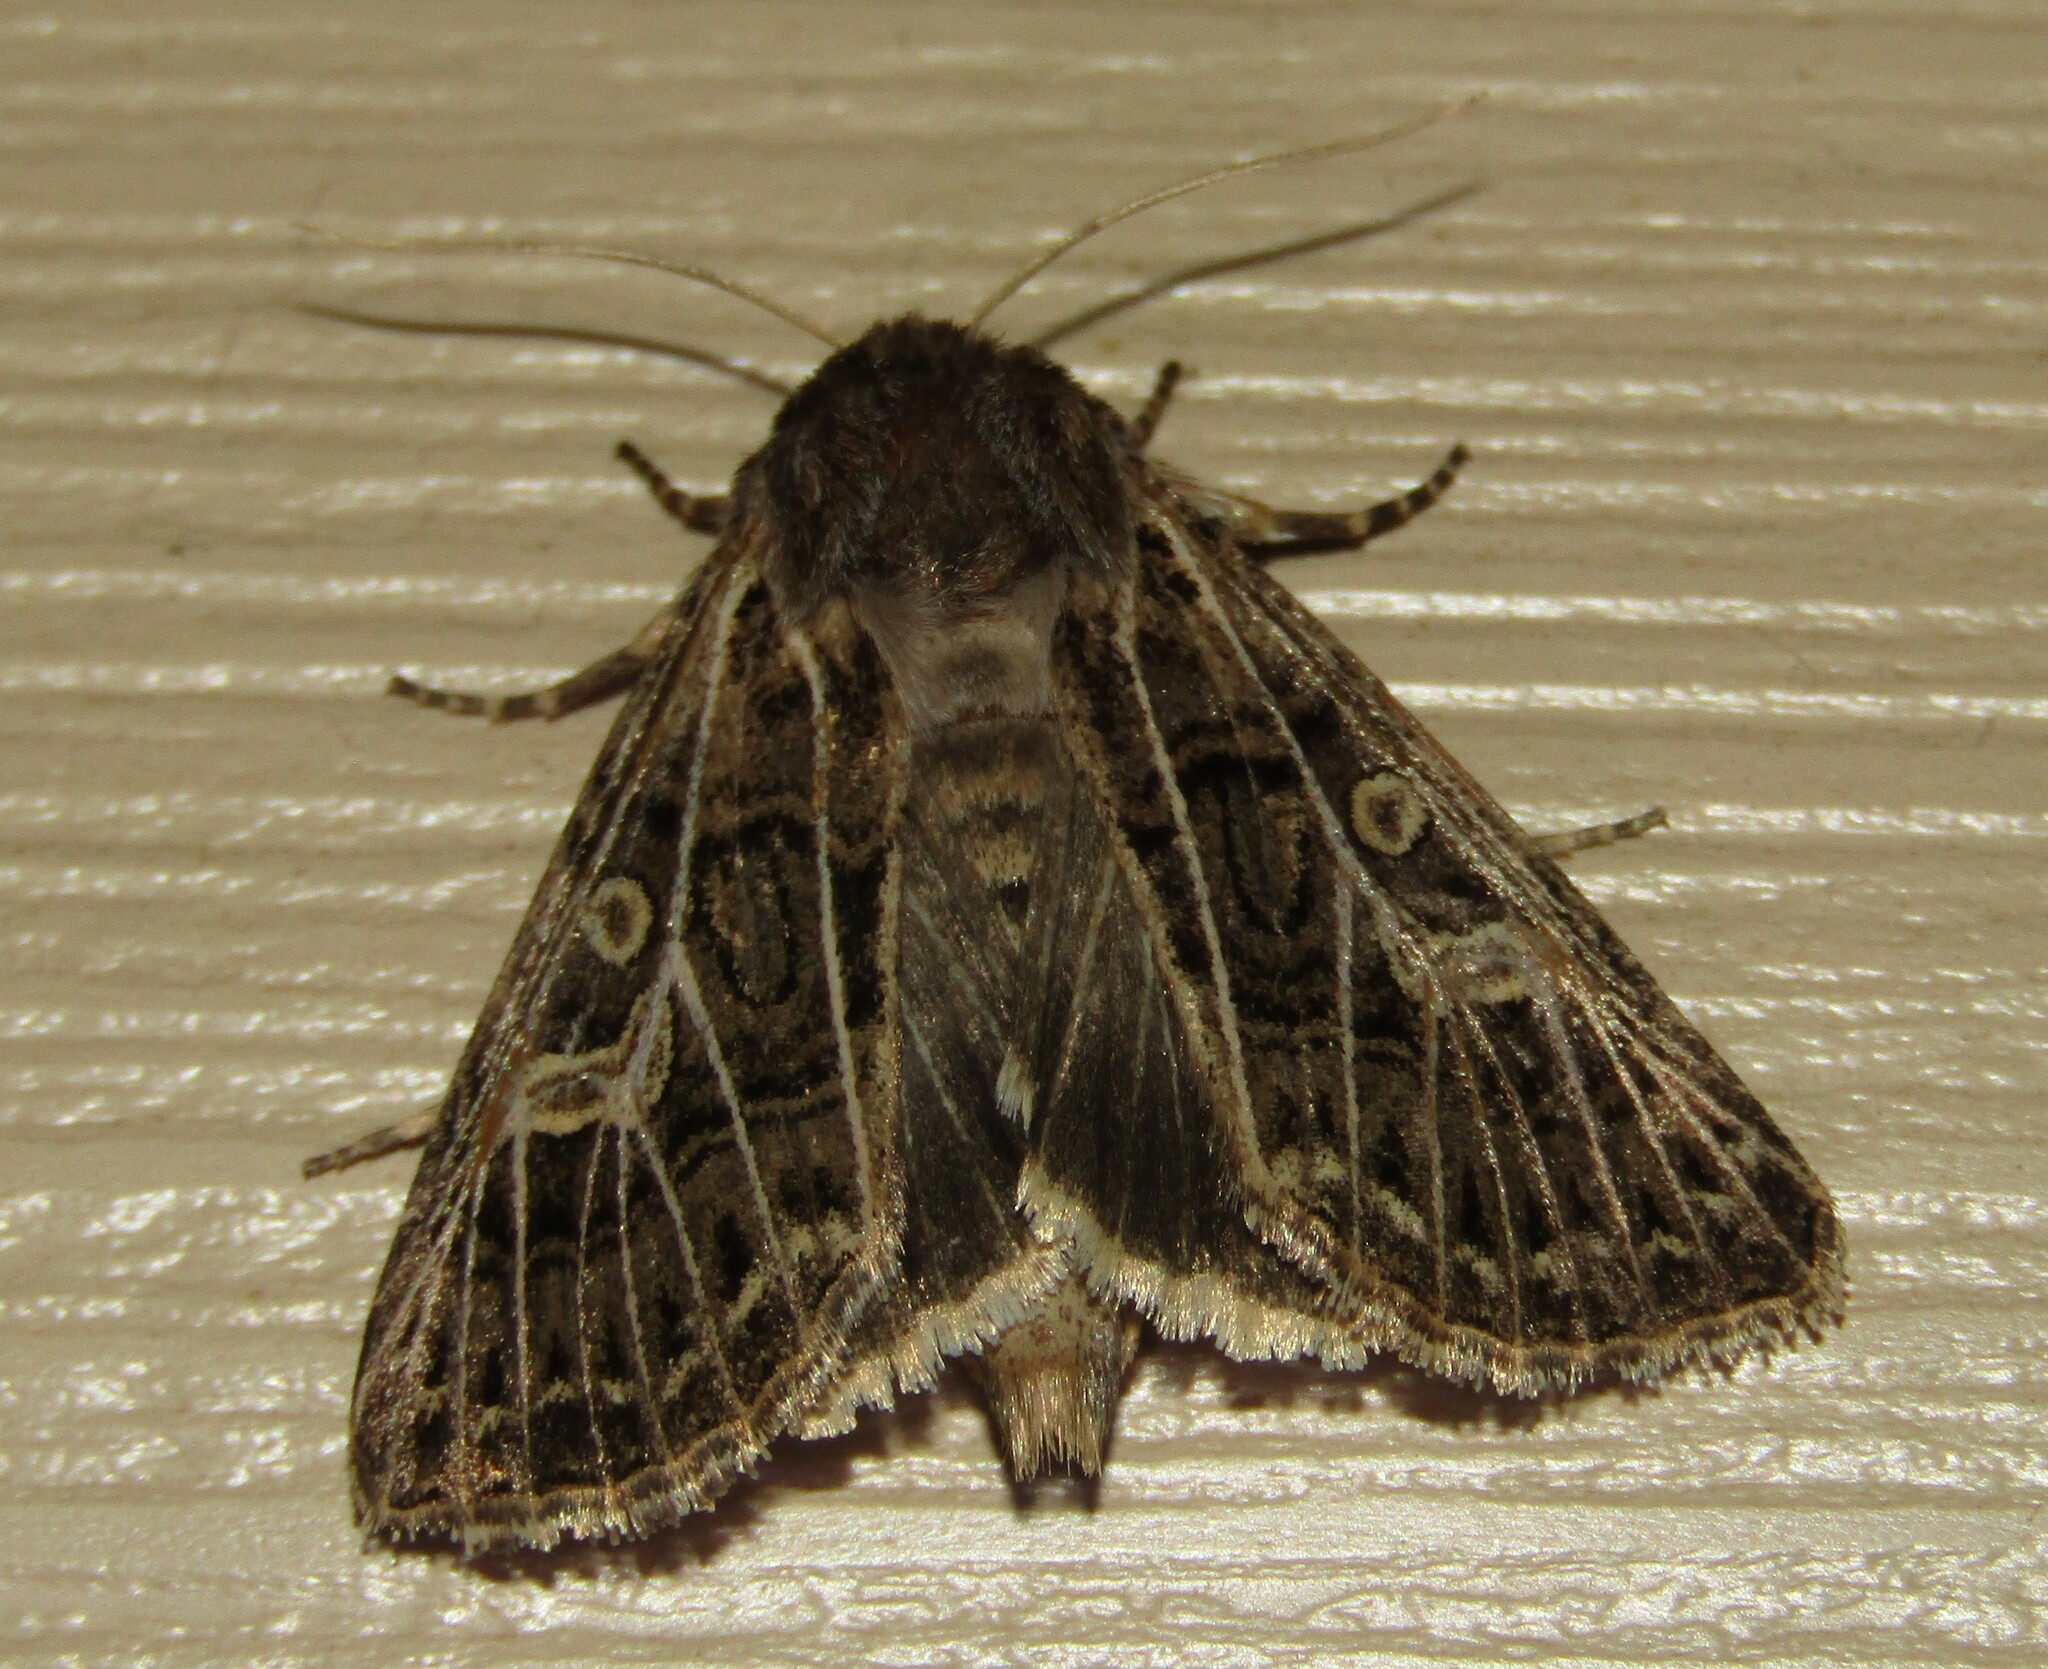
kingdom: Animalia
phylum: Arthropoda
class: Insecta
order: Lepidoptera
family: Noctuidae
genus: Tholera
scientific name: Tholera decimalis
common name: Feathered gothic
